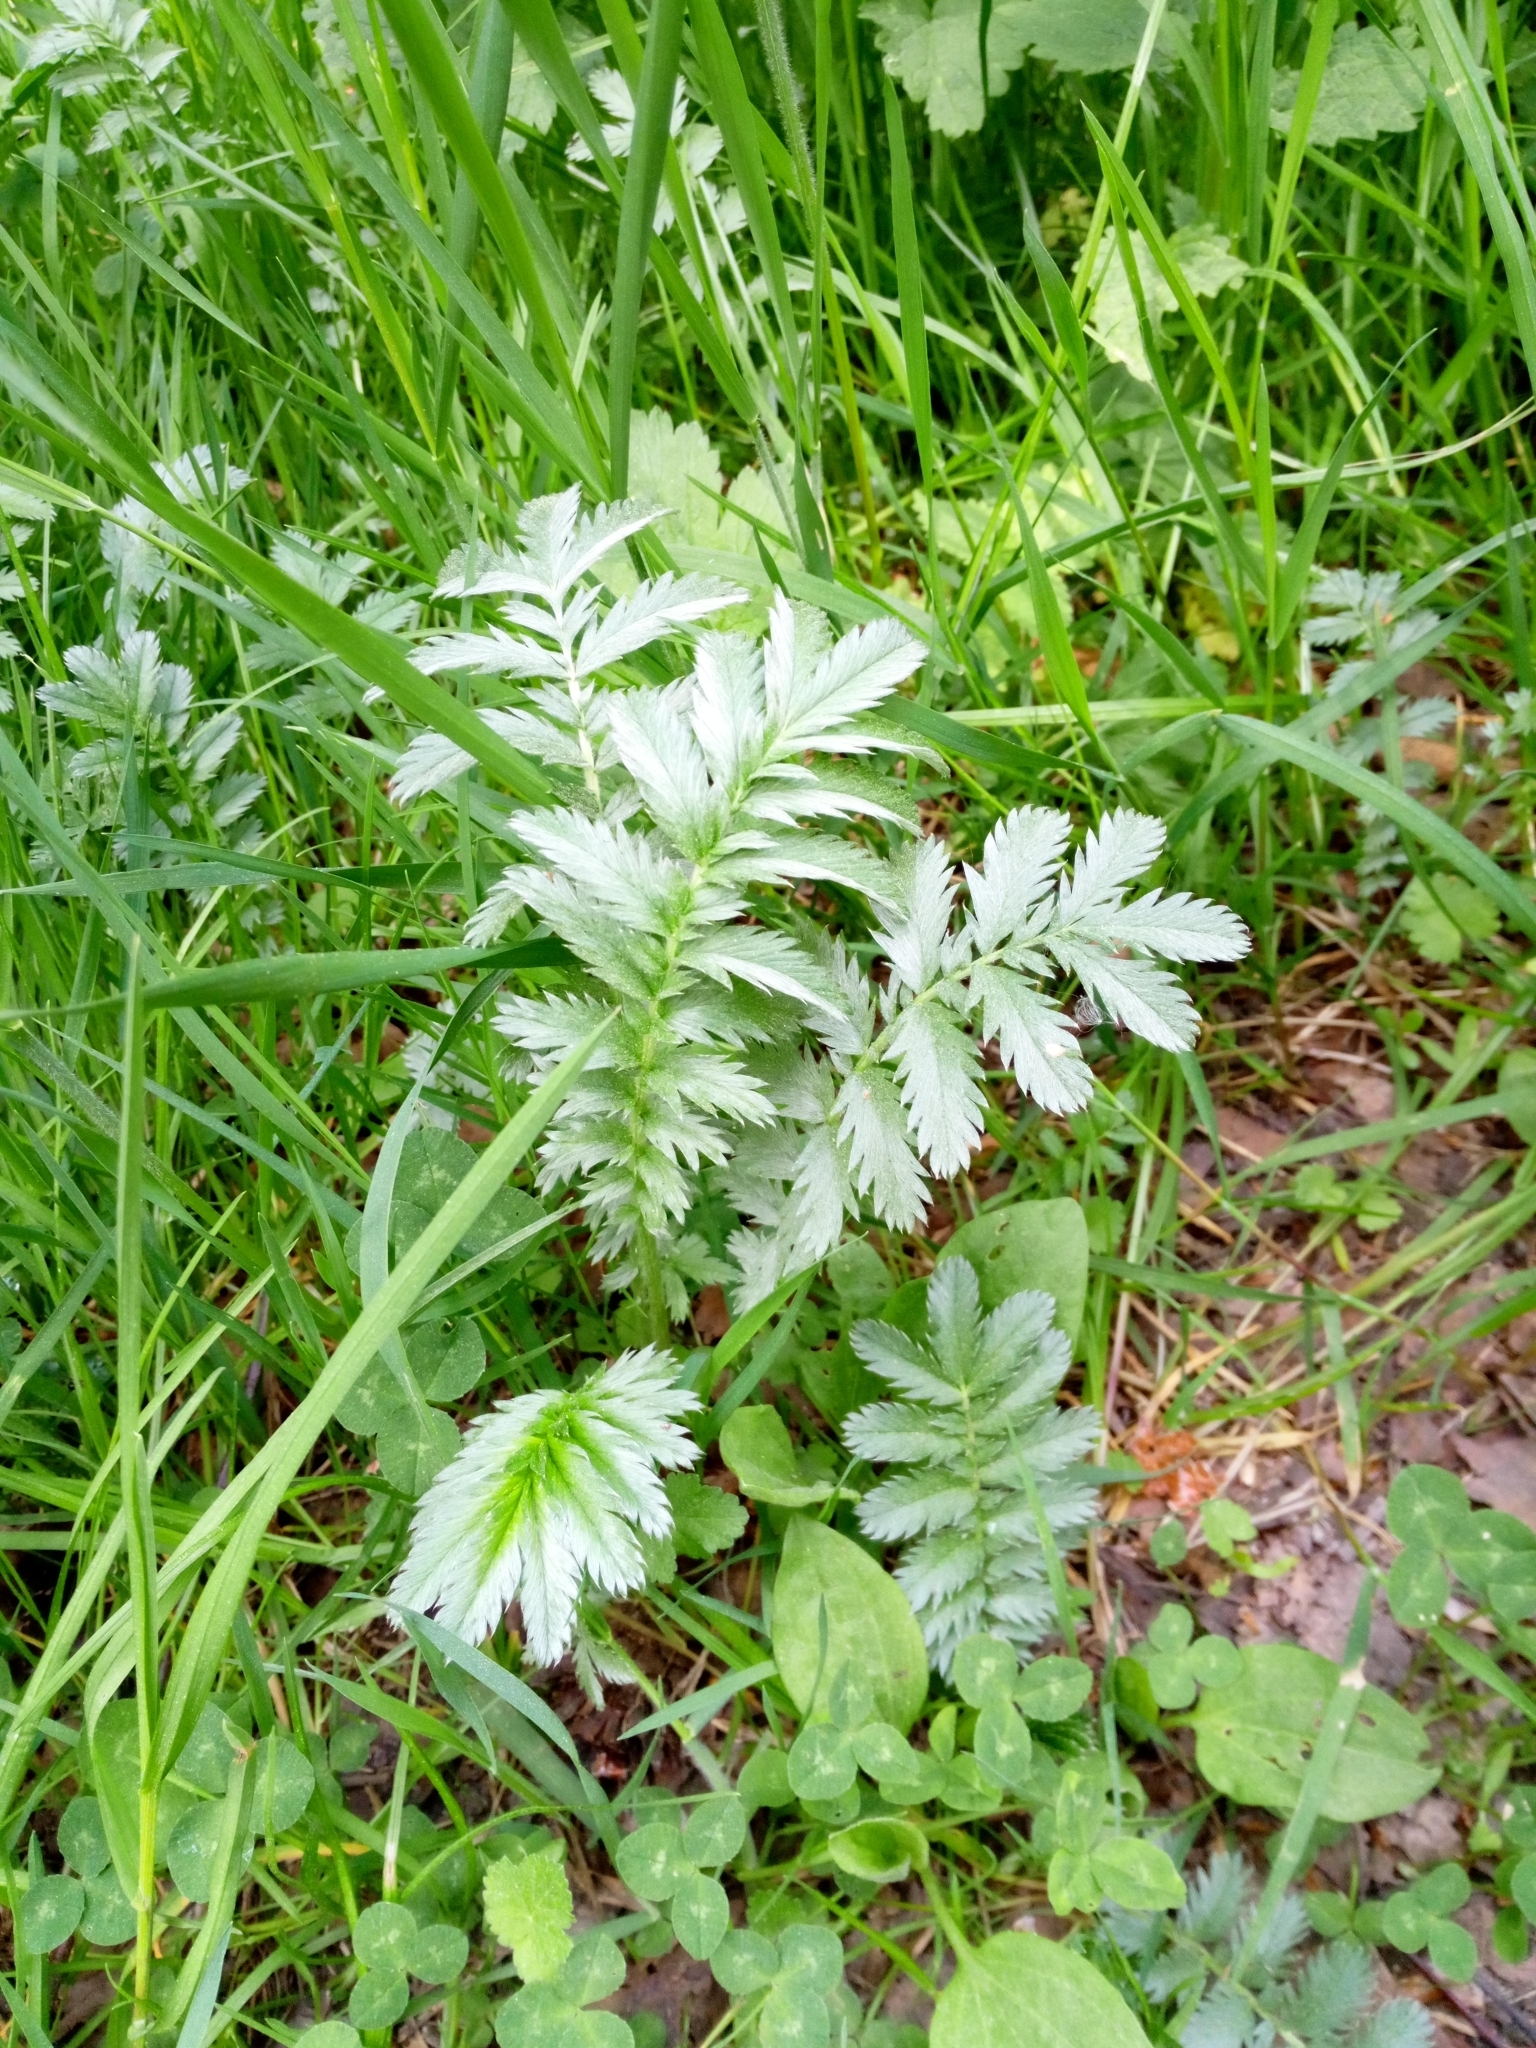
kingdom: Plantae
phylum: Tracheophyta
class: Magnoliopsida
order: Rosales
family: Rosaceae
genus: Argentina
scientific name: Argentina anserina
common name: Common silverweed
